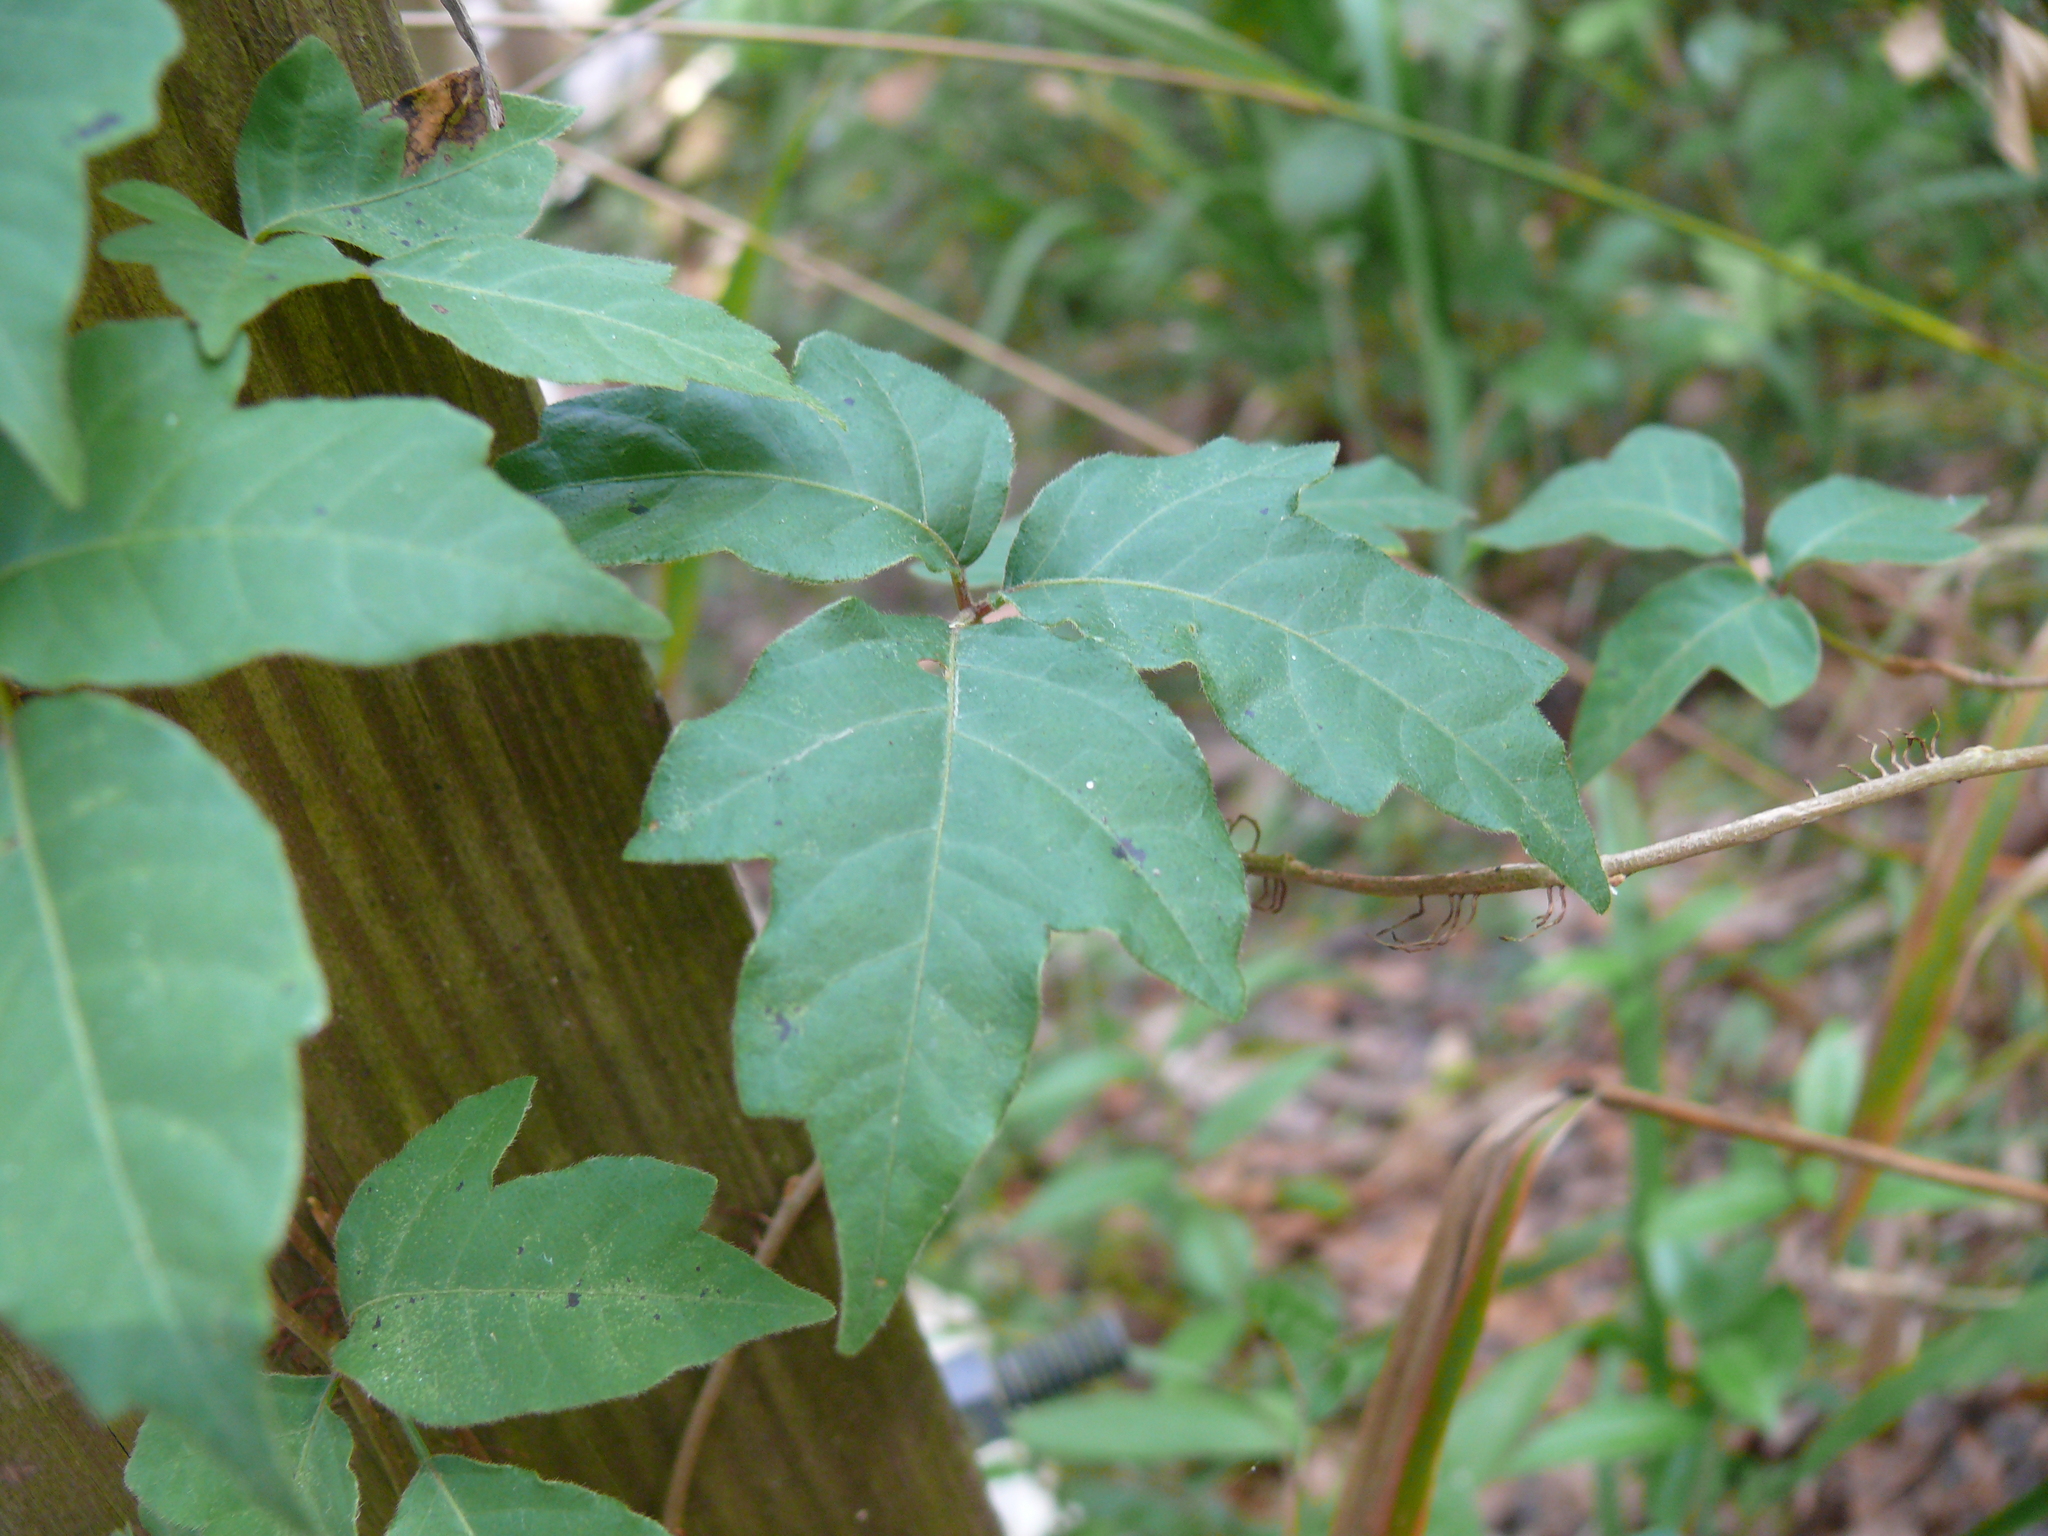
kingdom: Plantae
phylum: Tracheophyta
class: Magnoliopsida
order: Sapindales
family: Anacardiaceae
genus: Toxicodendron
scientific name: Toxicodendron radicans
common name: Poison ivy
